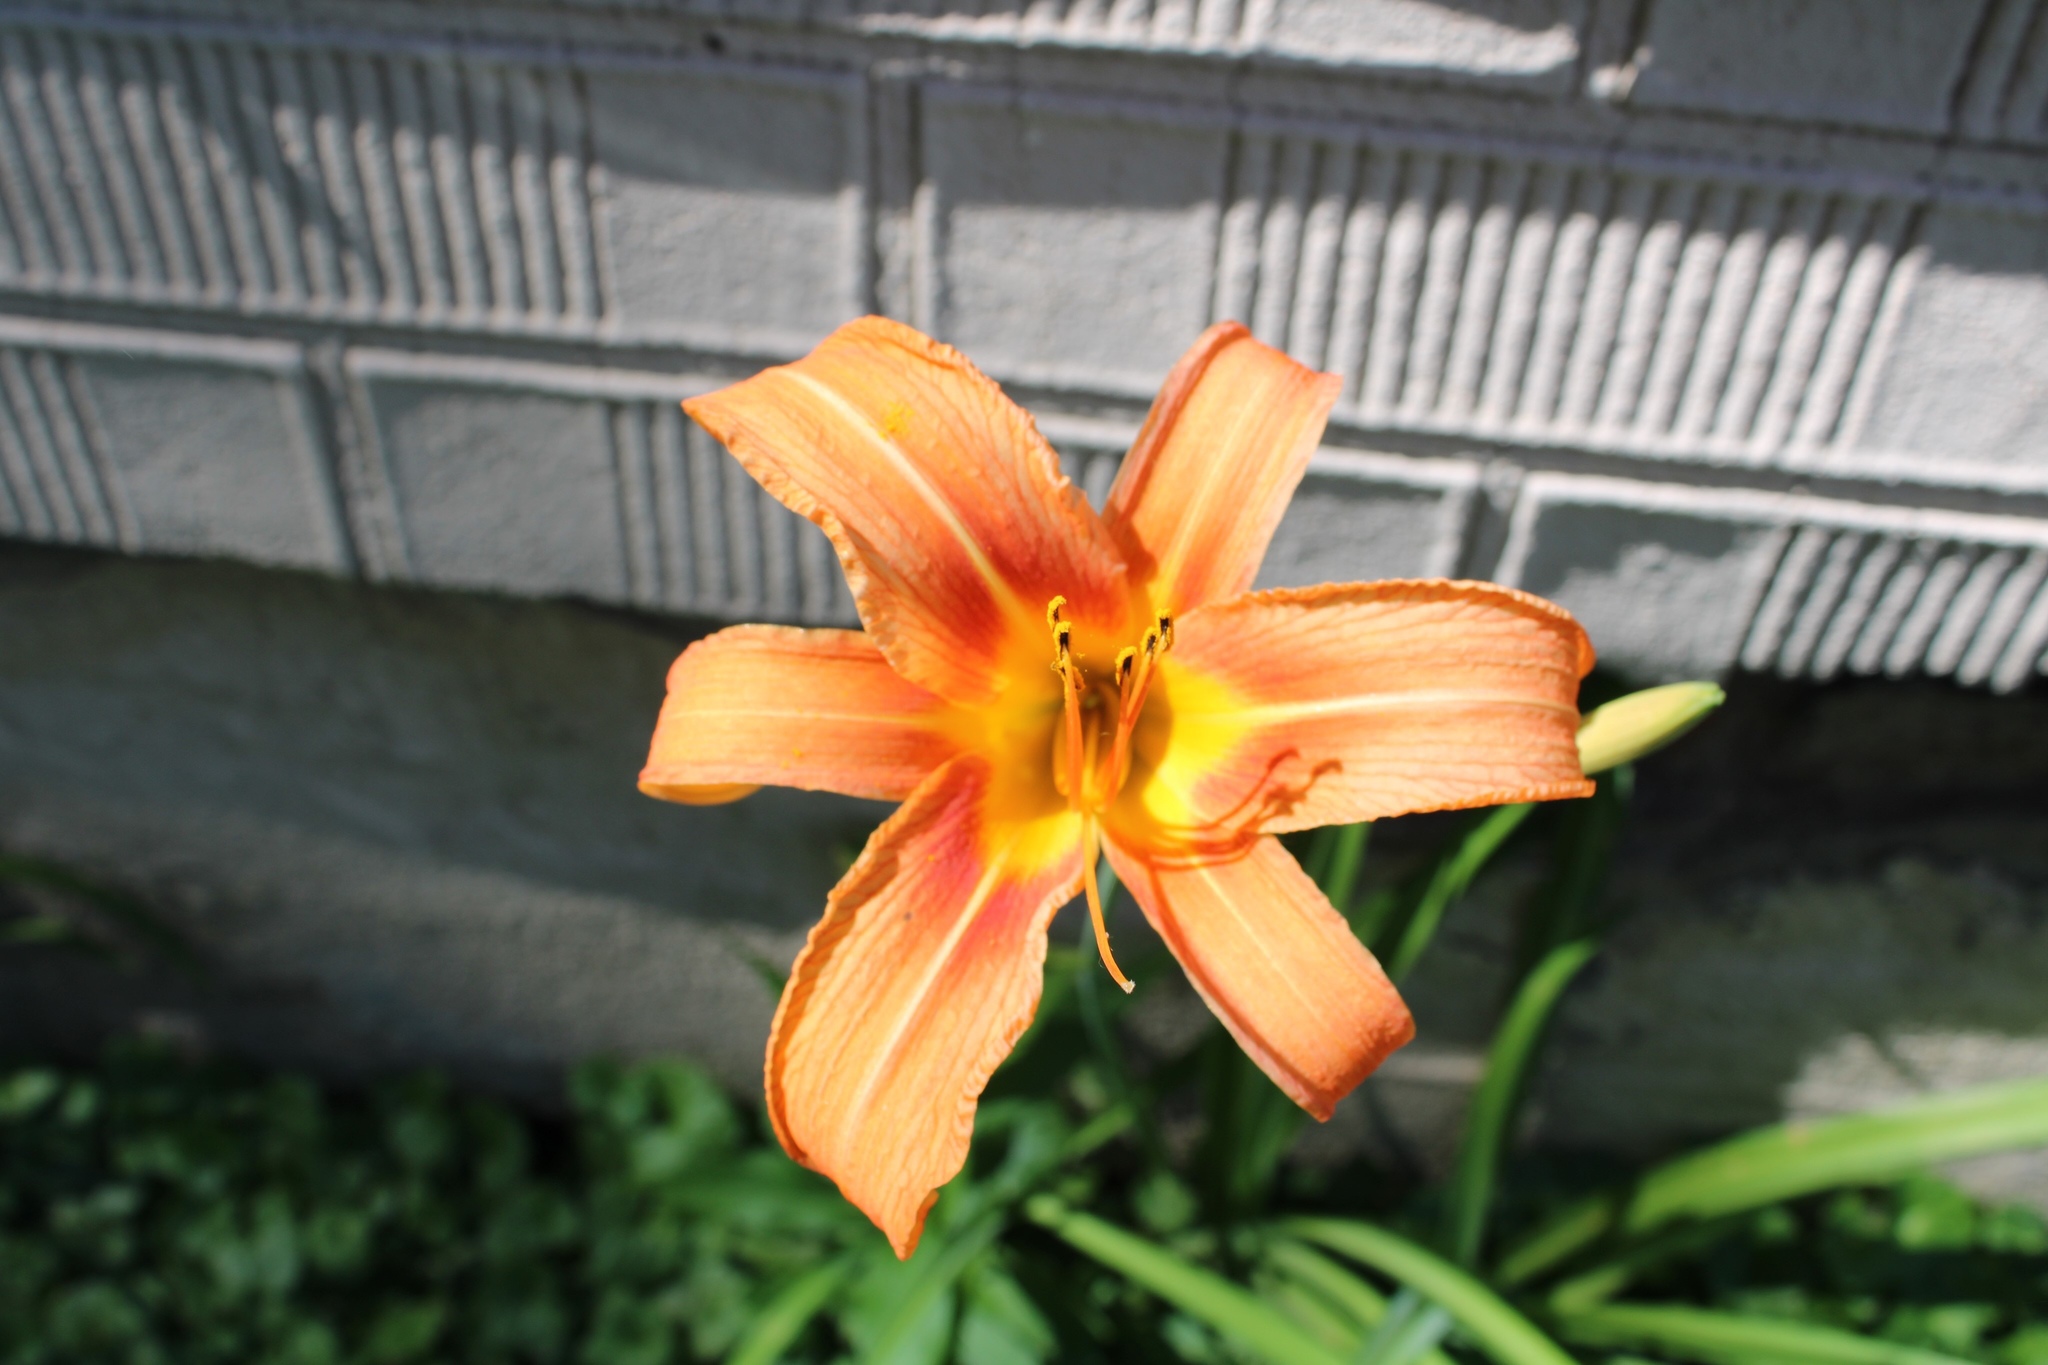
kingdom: Plantae
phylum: Tracheophyta
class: Liliopsida
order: Asparagales
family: Asphodelaceae
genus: Hemerocallis
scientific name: Hemerocallis fulva
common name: Orange day-lily
